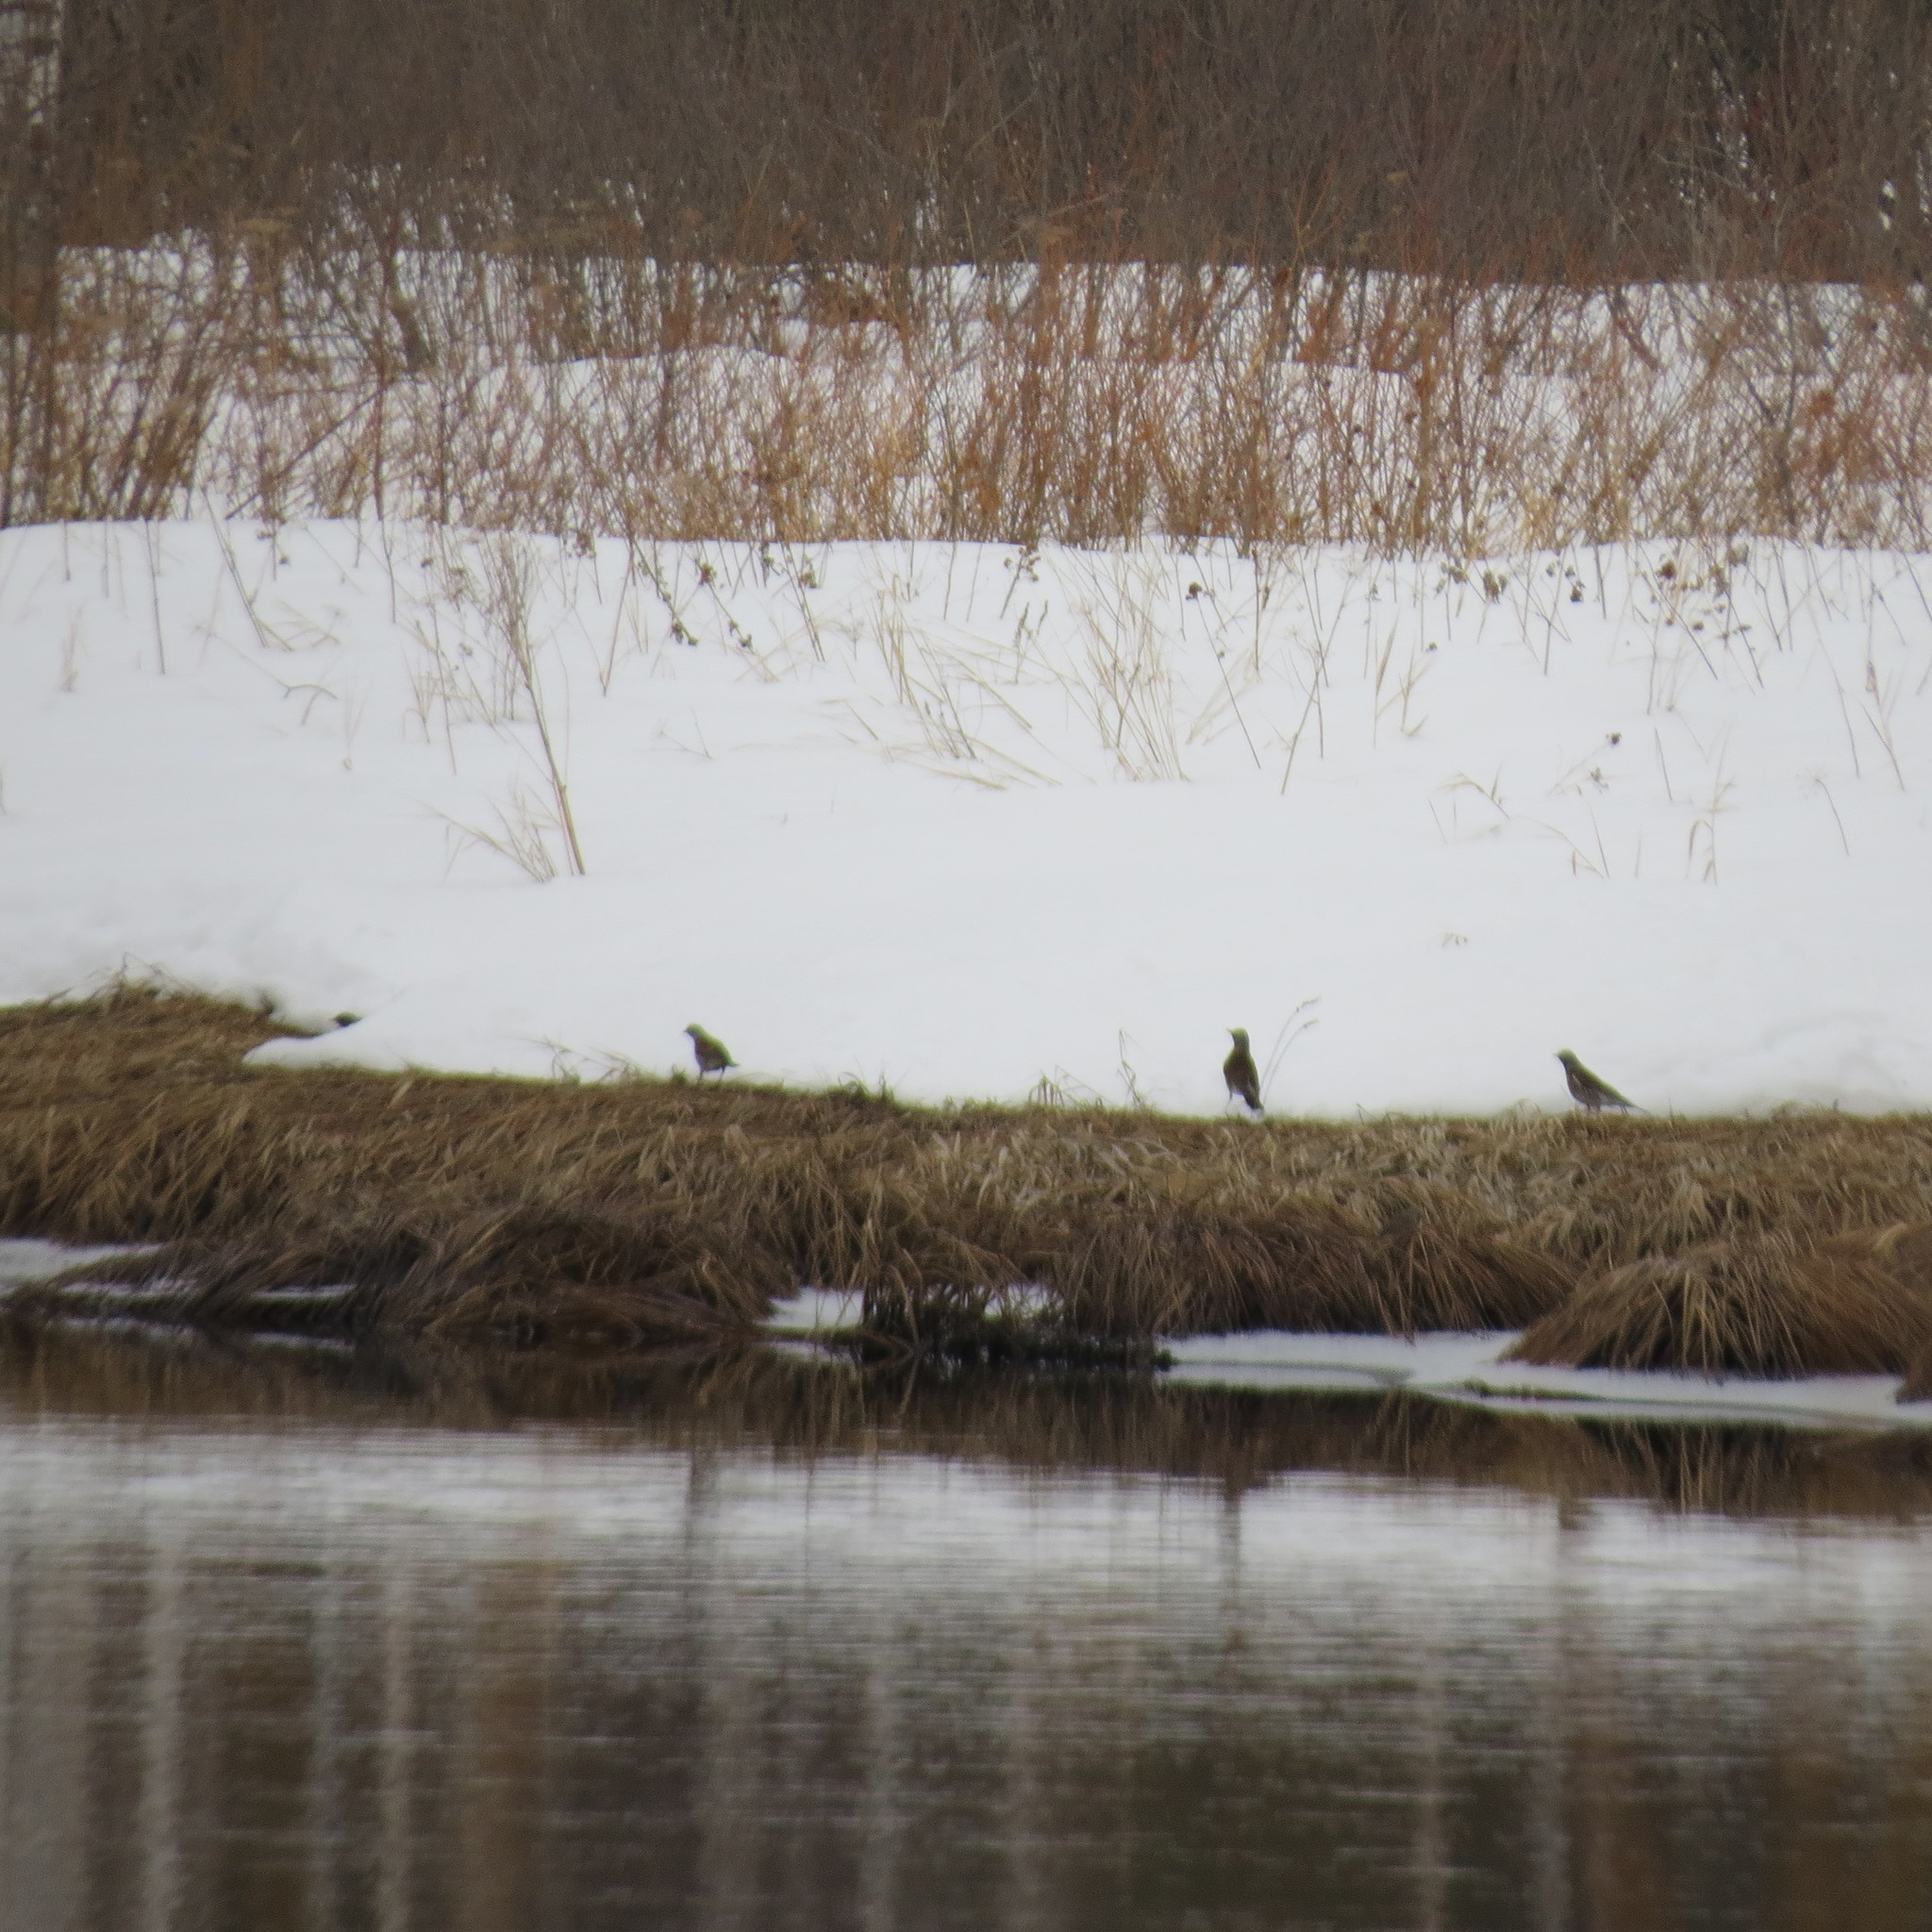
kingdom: Animalia
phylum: Chordata
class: Aves
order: Passeriformes
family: Turdidae
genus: Turdus
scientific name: Turdus pilaris
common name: Fieldfare
